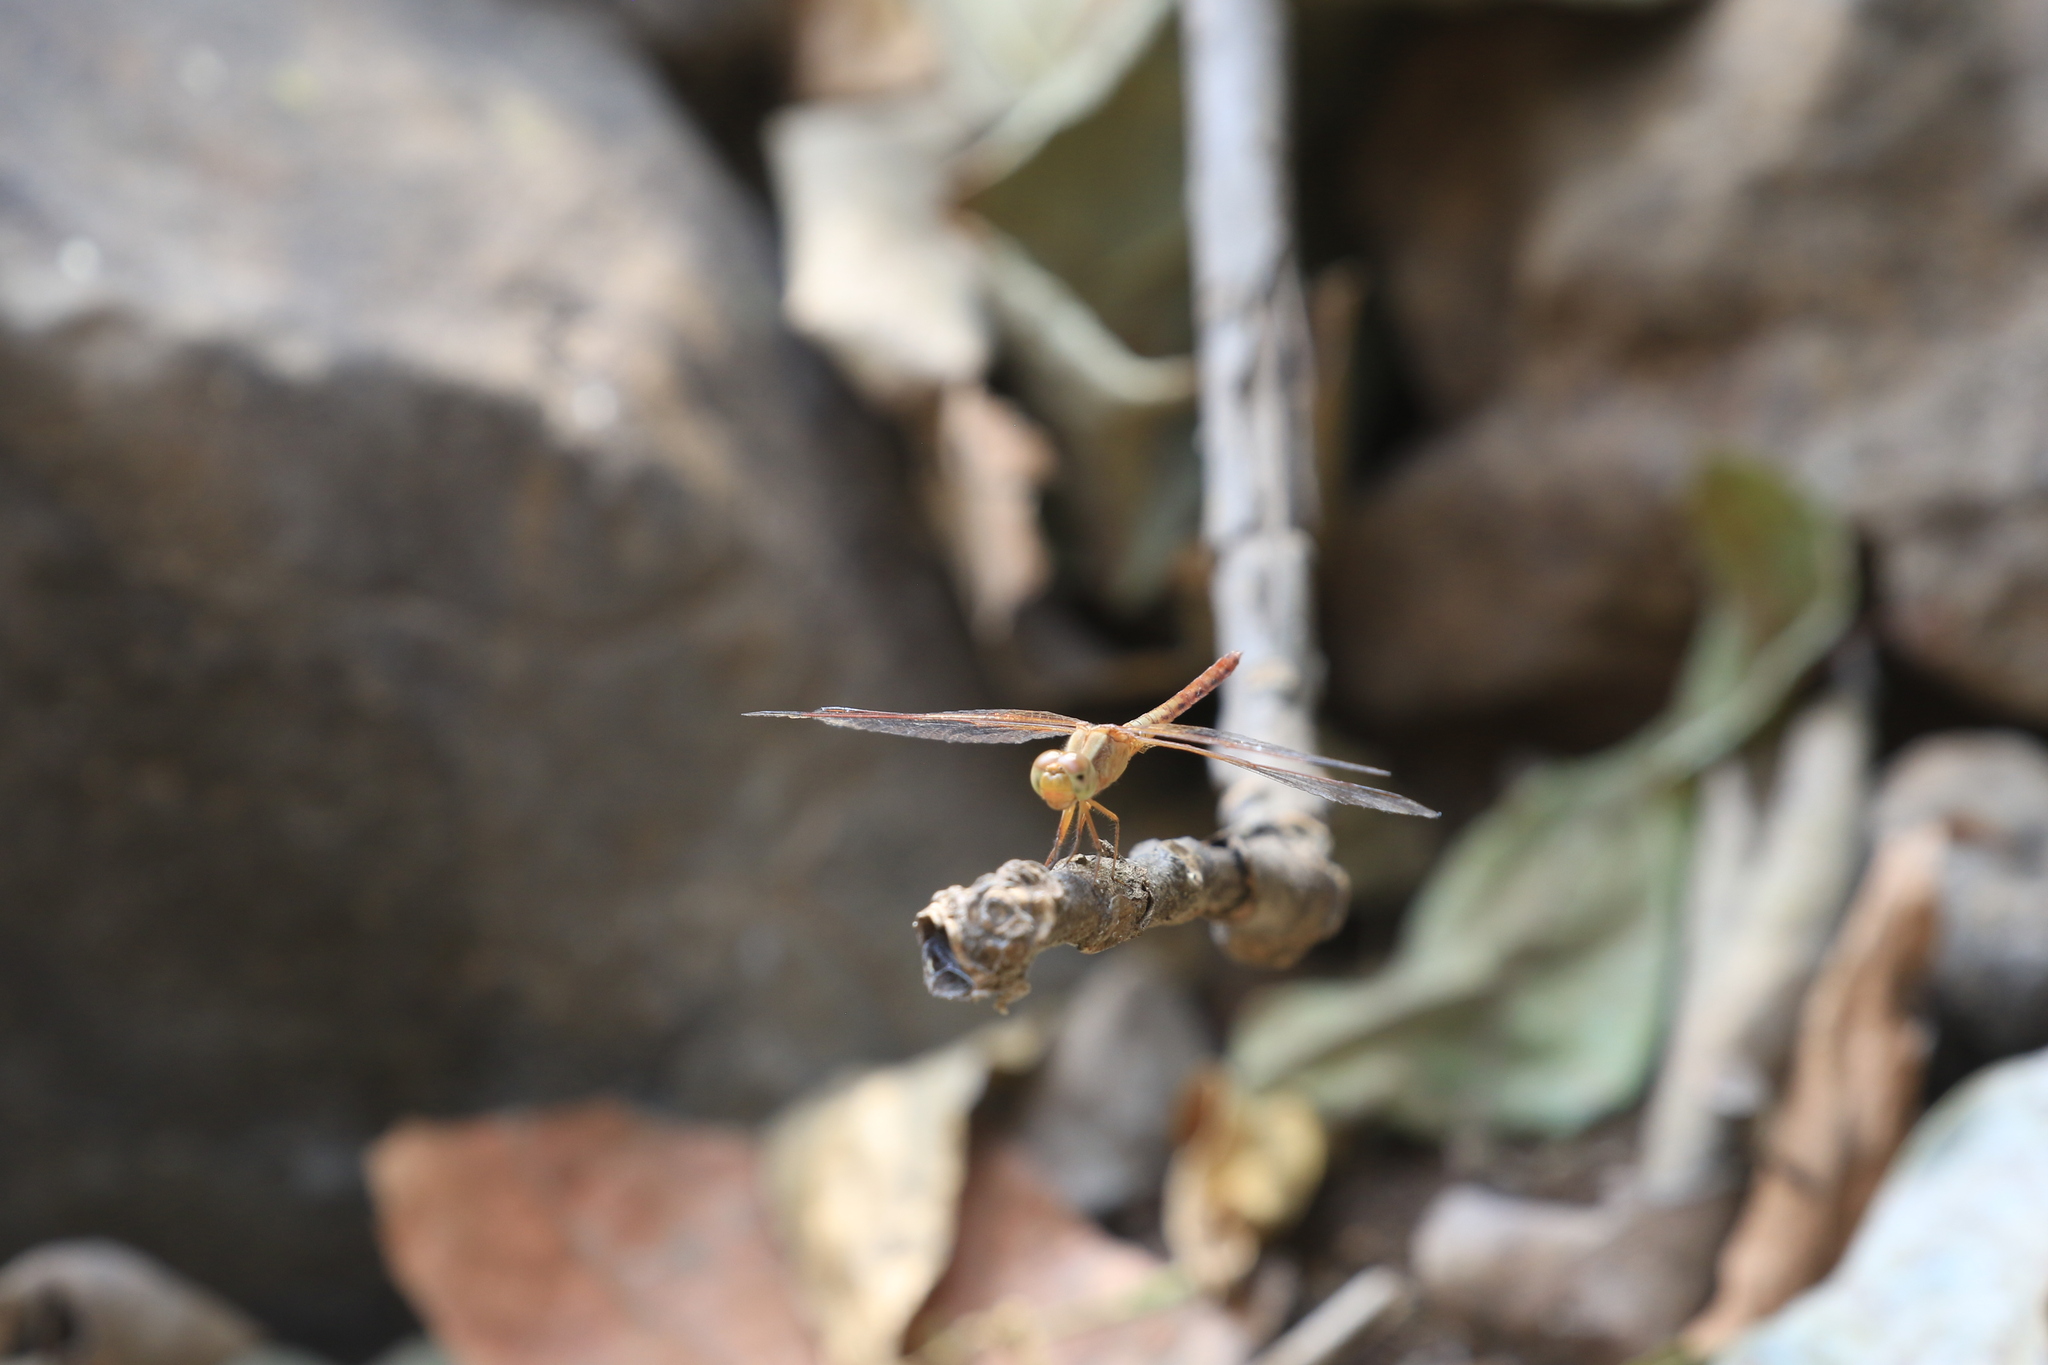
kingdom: Animalia
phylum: Arthropoda
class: Insecta
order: Odonata
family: Libellulidae
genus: Neurothemis
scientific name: Neurothemis intermedia
